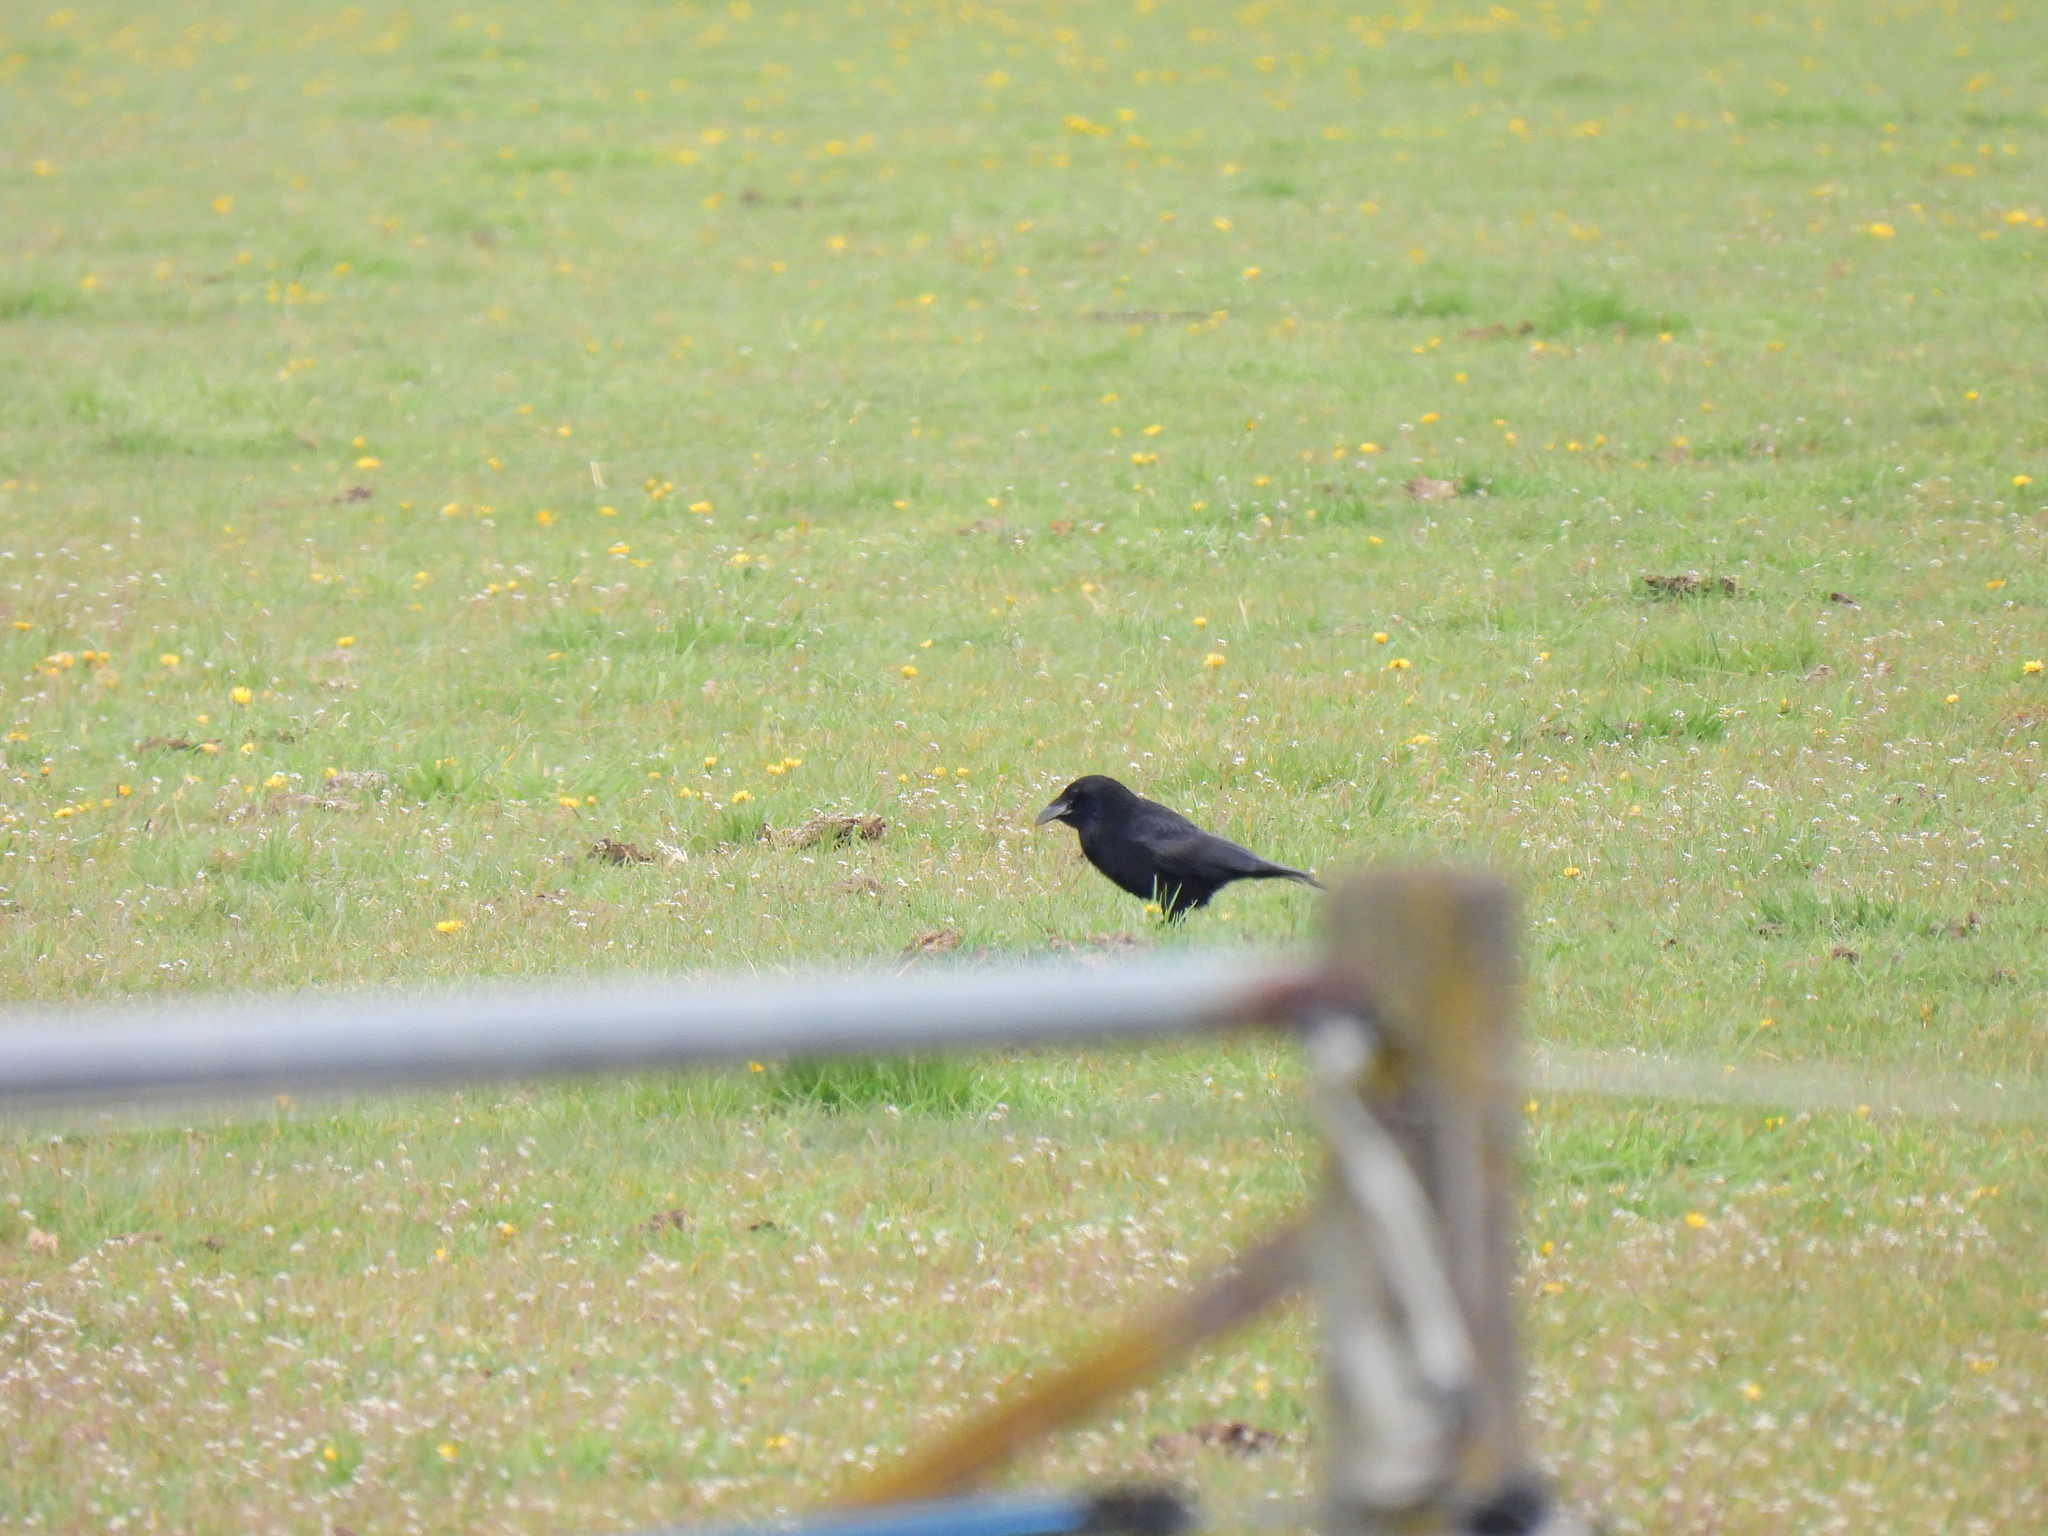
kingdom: Animalia
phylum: Chordata
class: Aves
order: Passeriformes
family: Corvidae
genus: Corvus
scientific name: Corvus corone
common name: Carrion crow
